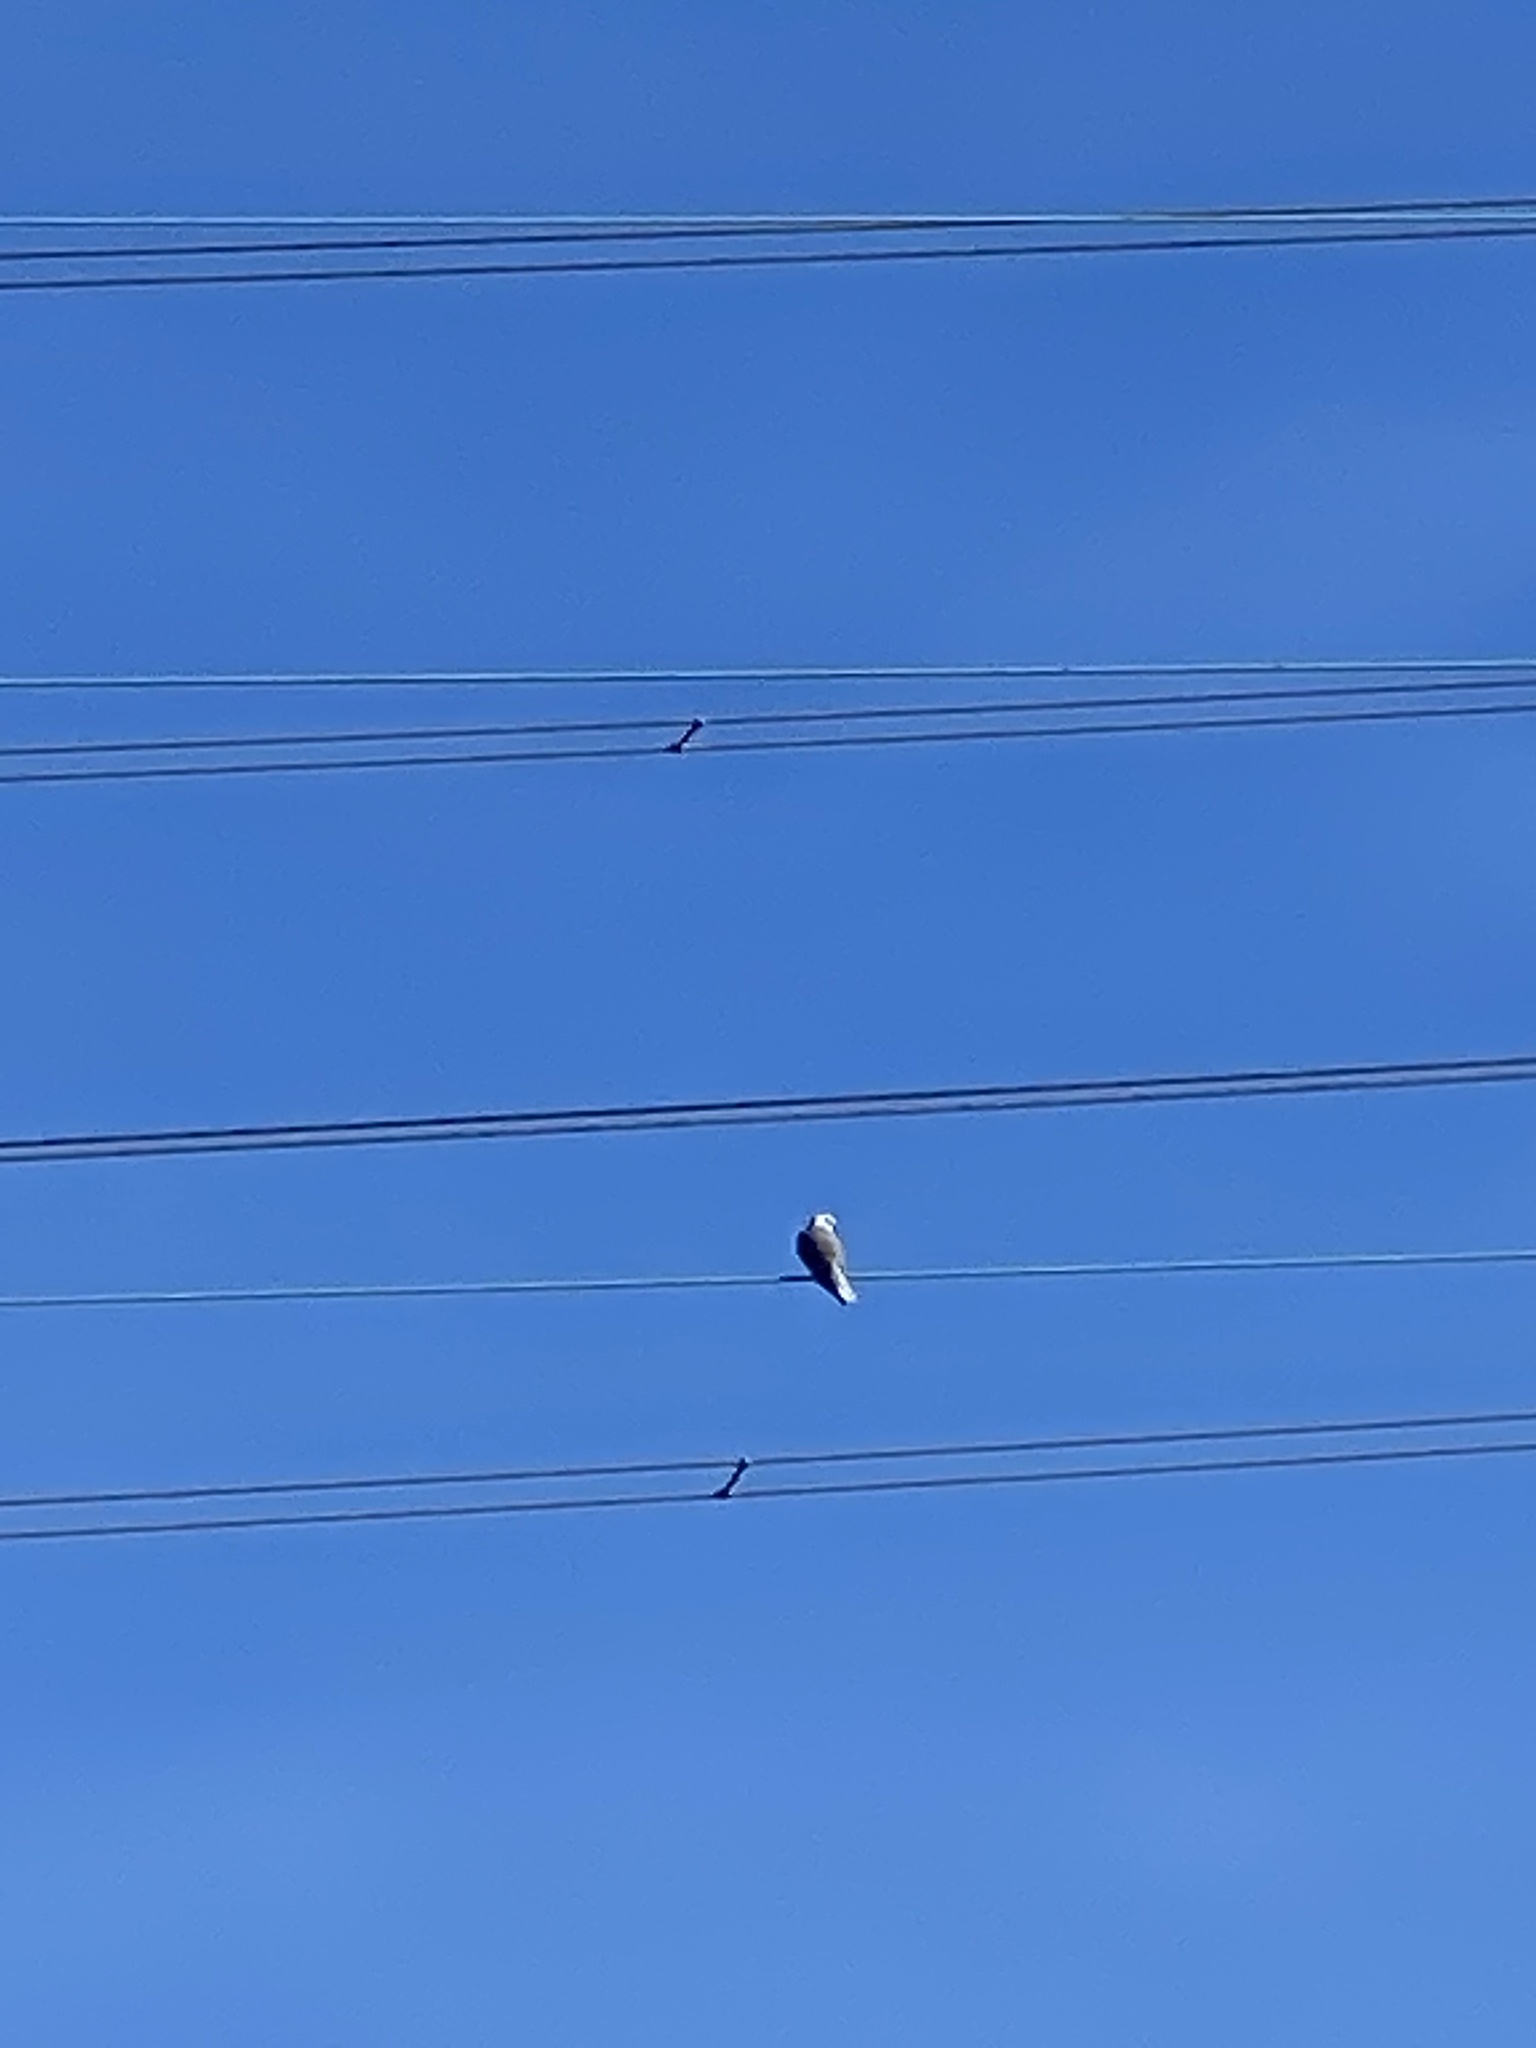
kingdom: Animalia
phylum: Chordata
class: Aves
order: Accipitriformes
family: Accipitridae
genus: Elanus
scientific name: Elanus leucurus
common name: White-tailed kite
